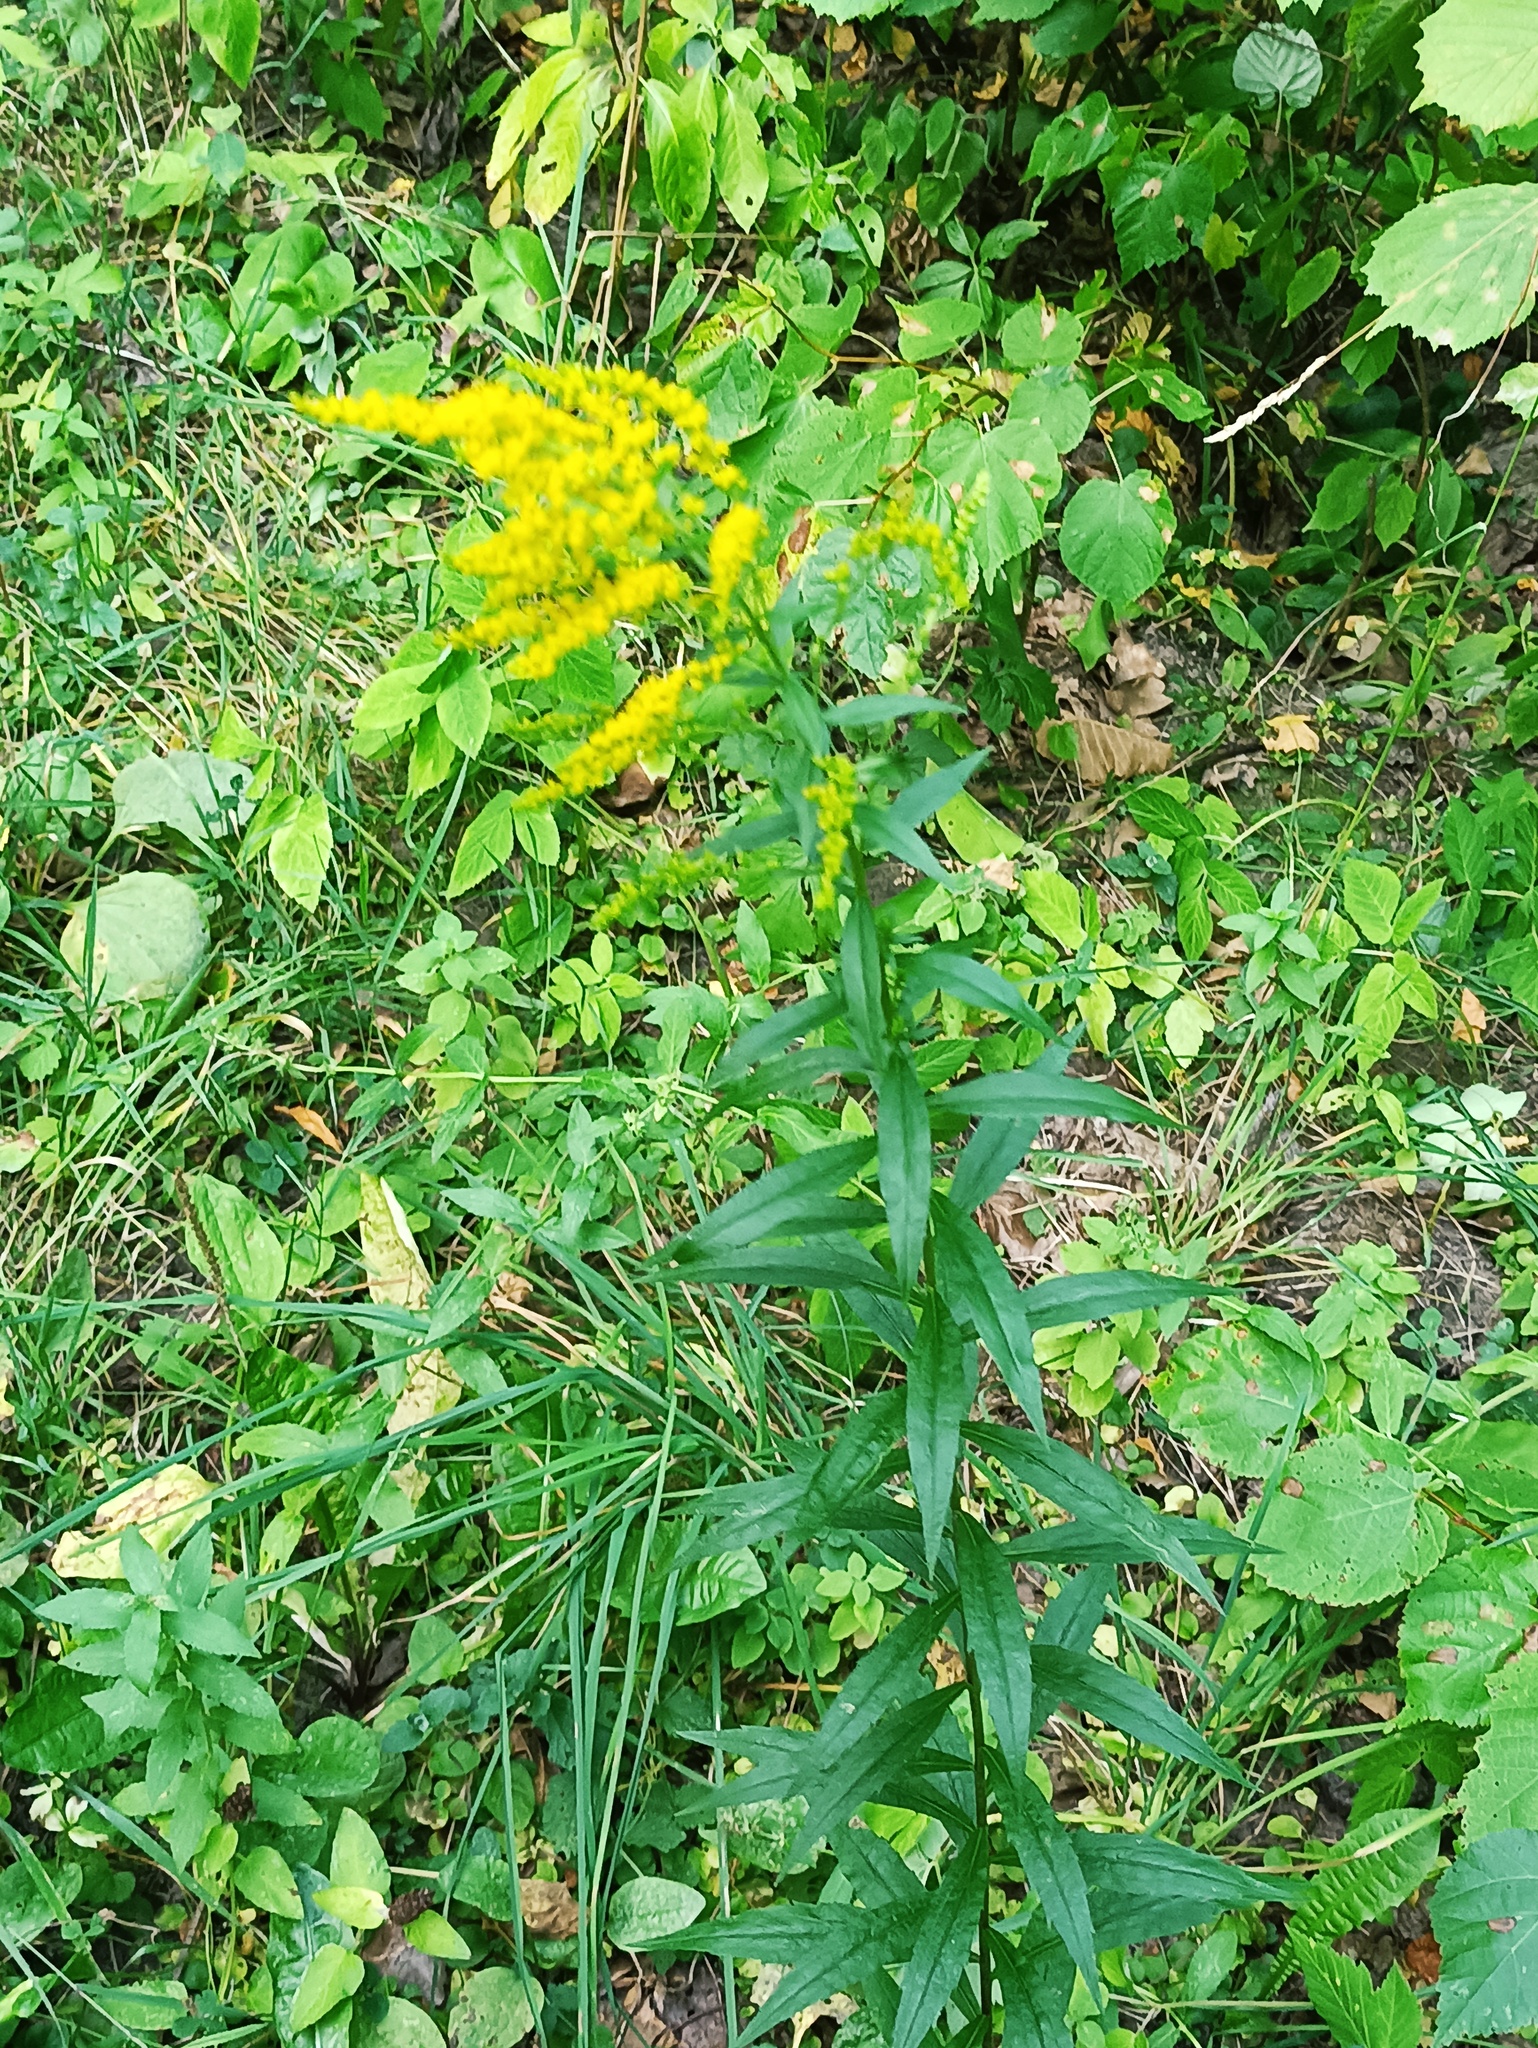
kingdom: Plantae
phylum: Tracheophyta
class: Magnoliopsida
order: Asterales
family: Asteraceae
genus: Solidago
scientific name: Solidago canadensis
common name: Canada goldenrod
